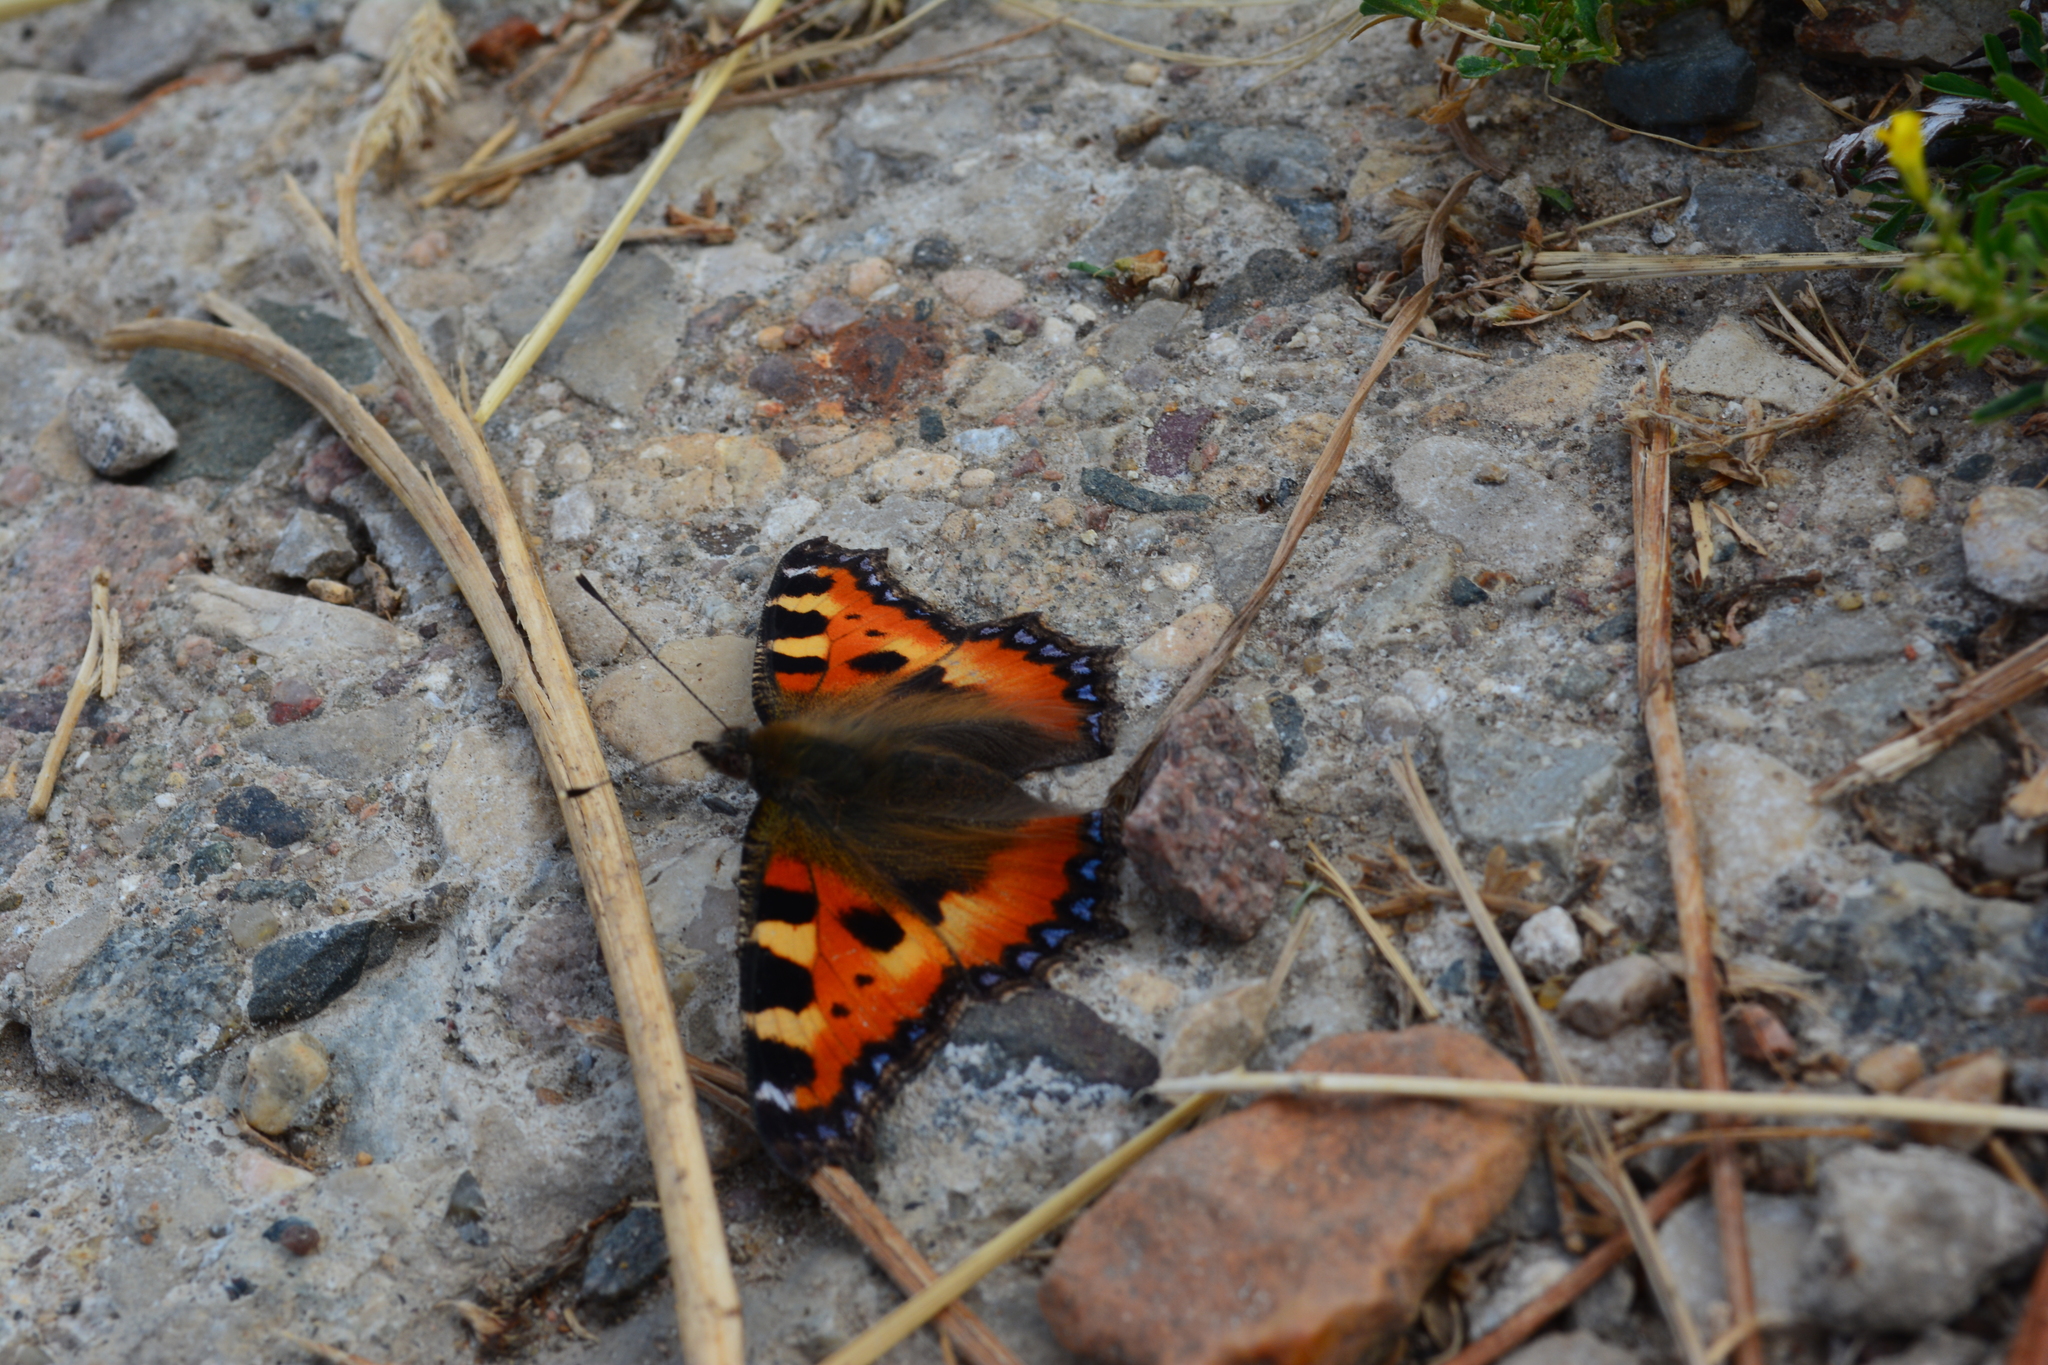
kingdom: Animalia
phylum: Arthropoda
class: Insecta
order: Lepidoptera
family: Nymphalidae
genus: Aglais
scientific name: Aglais urticae
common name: Small tortoiseshell
